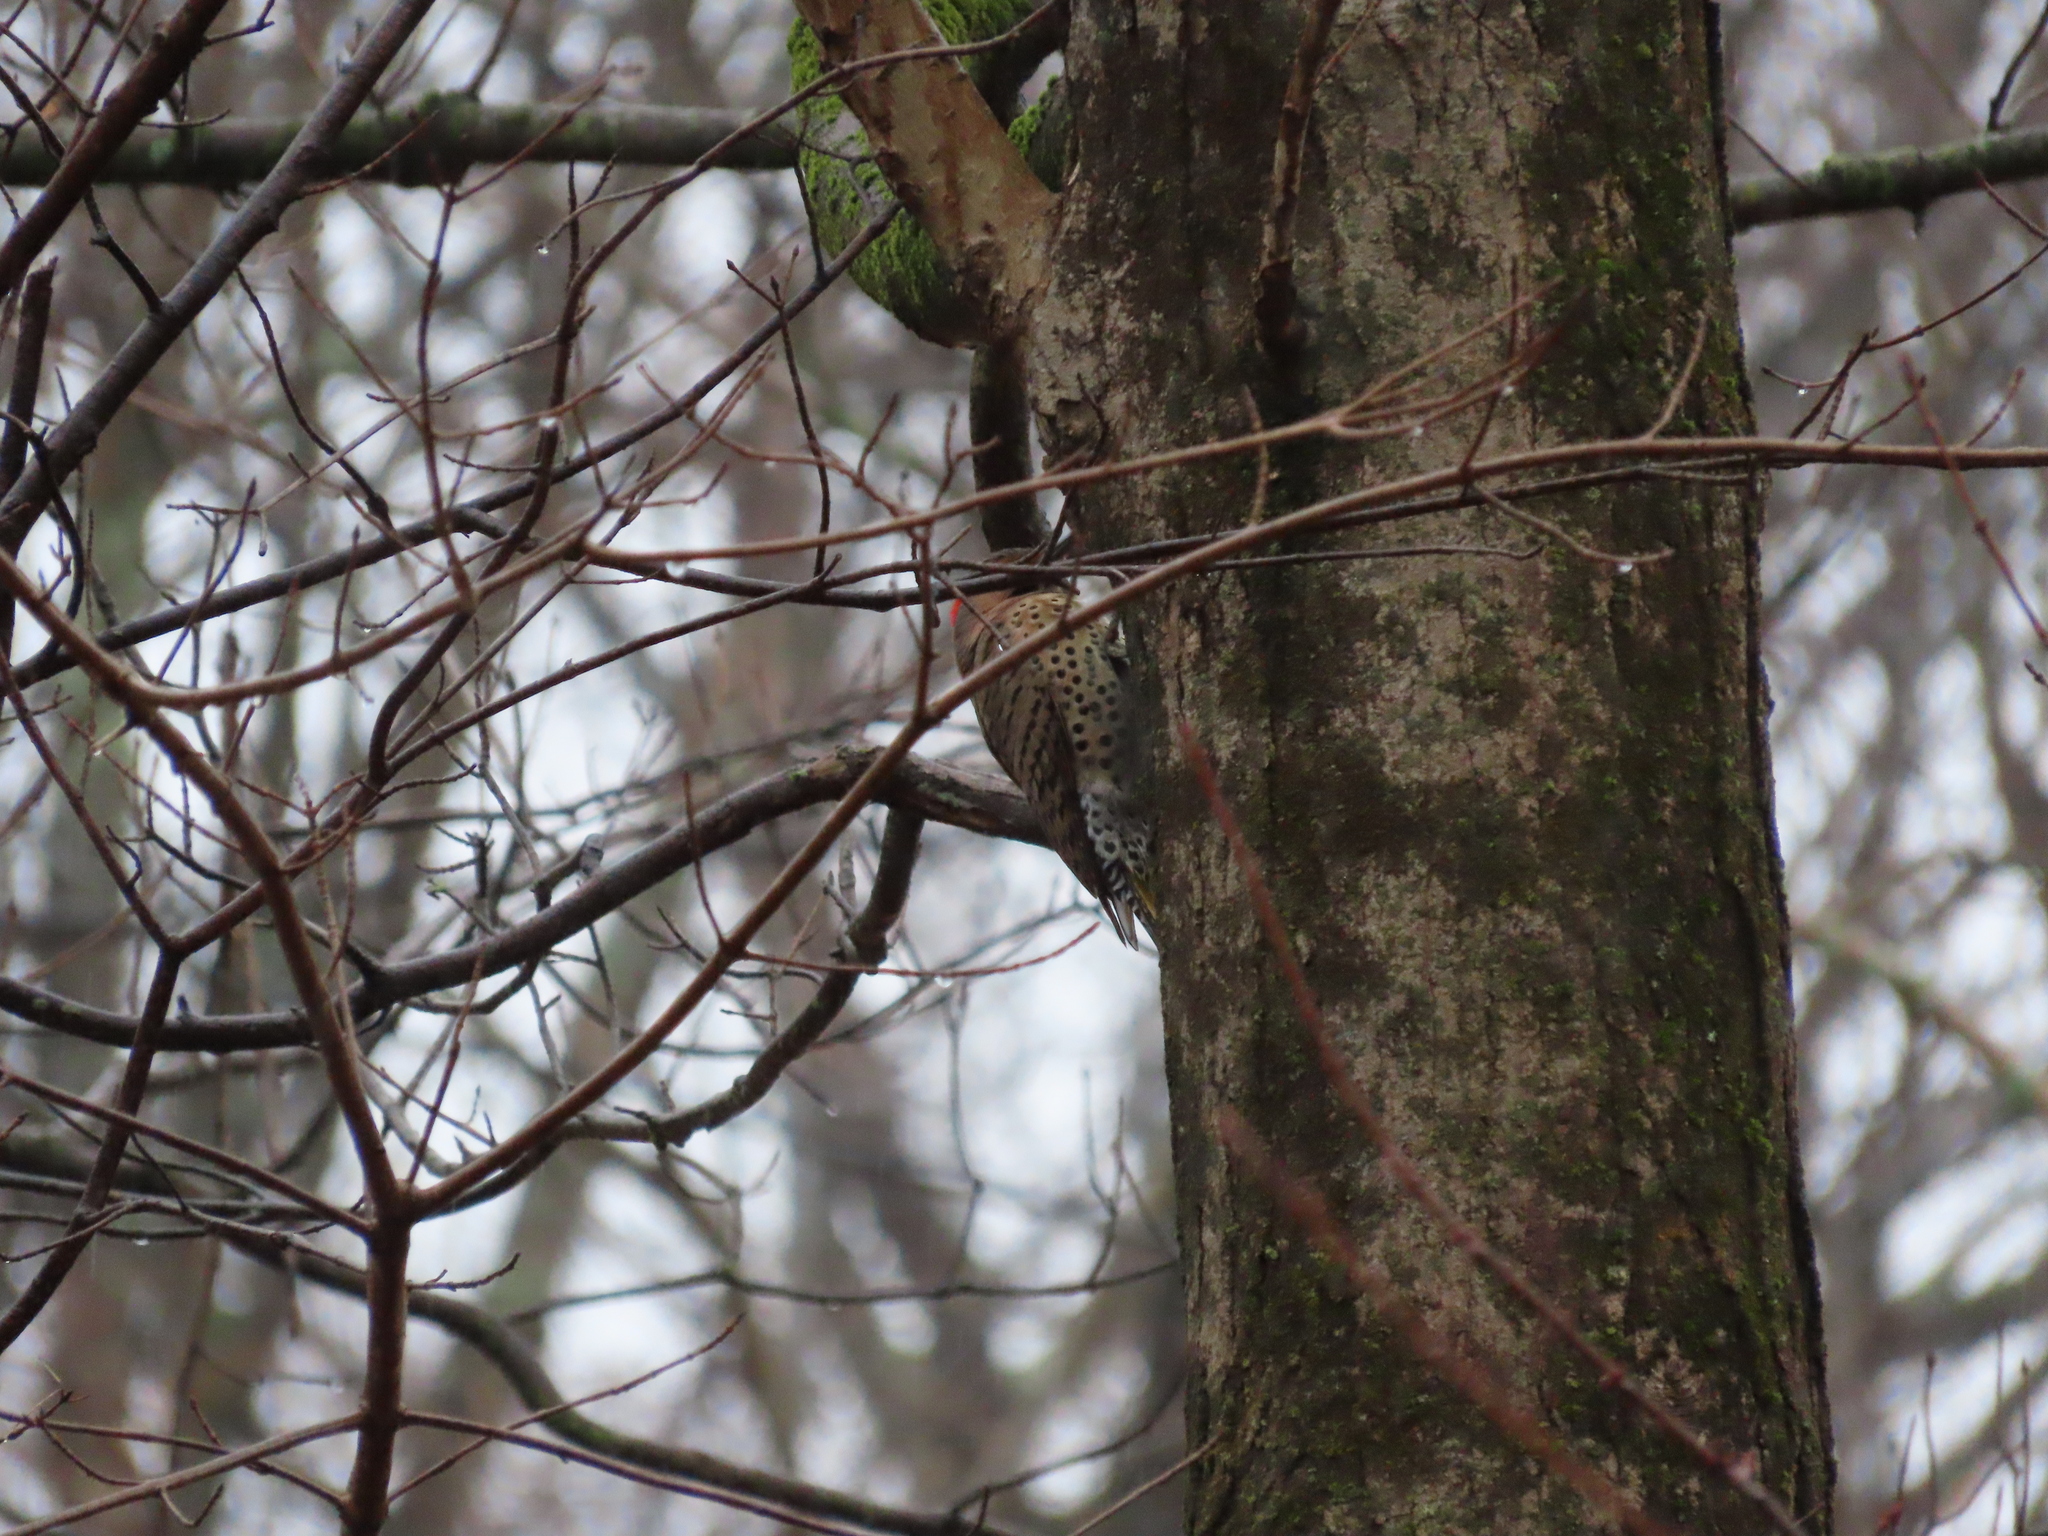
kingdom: Animalia
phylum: Chordata
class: Aves
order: Piciformes
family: Picidae
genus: Colaptes
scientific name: Colaptes auratus
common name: Northern flicker
